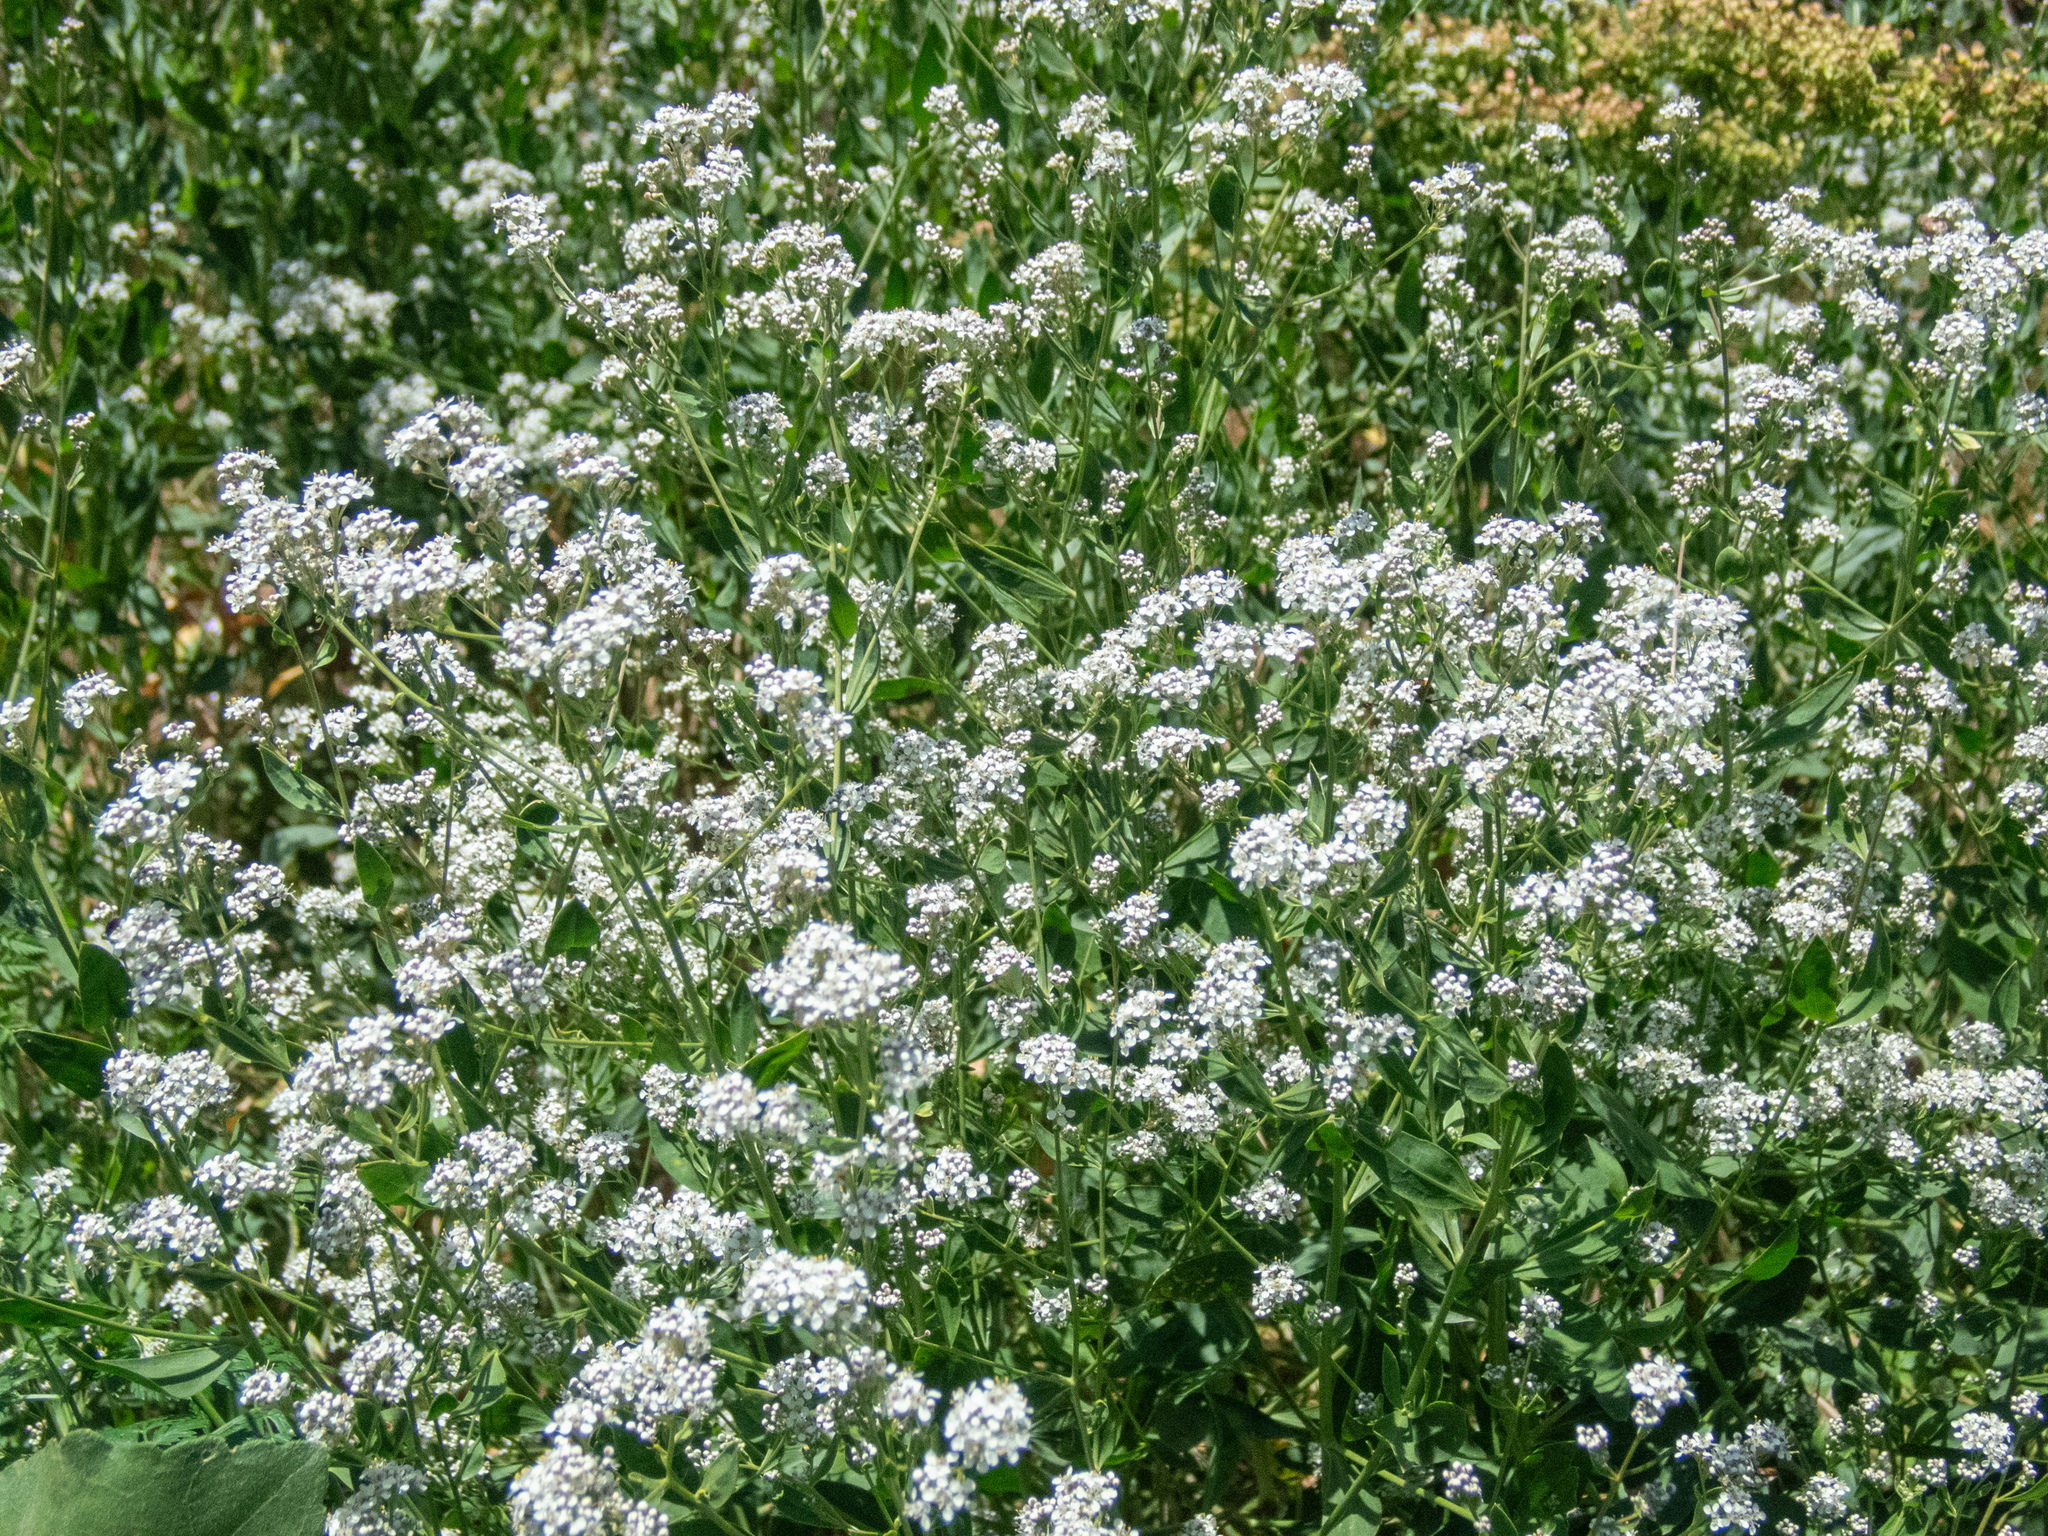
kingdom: Plantae
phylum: Tracheophyta
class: Magnoliopsida
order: Brassicales
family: Brassicaceae
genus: Lepidium
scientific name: Lepidium latifolium
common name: Dittander
